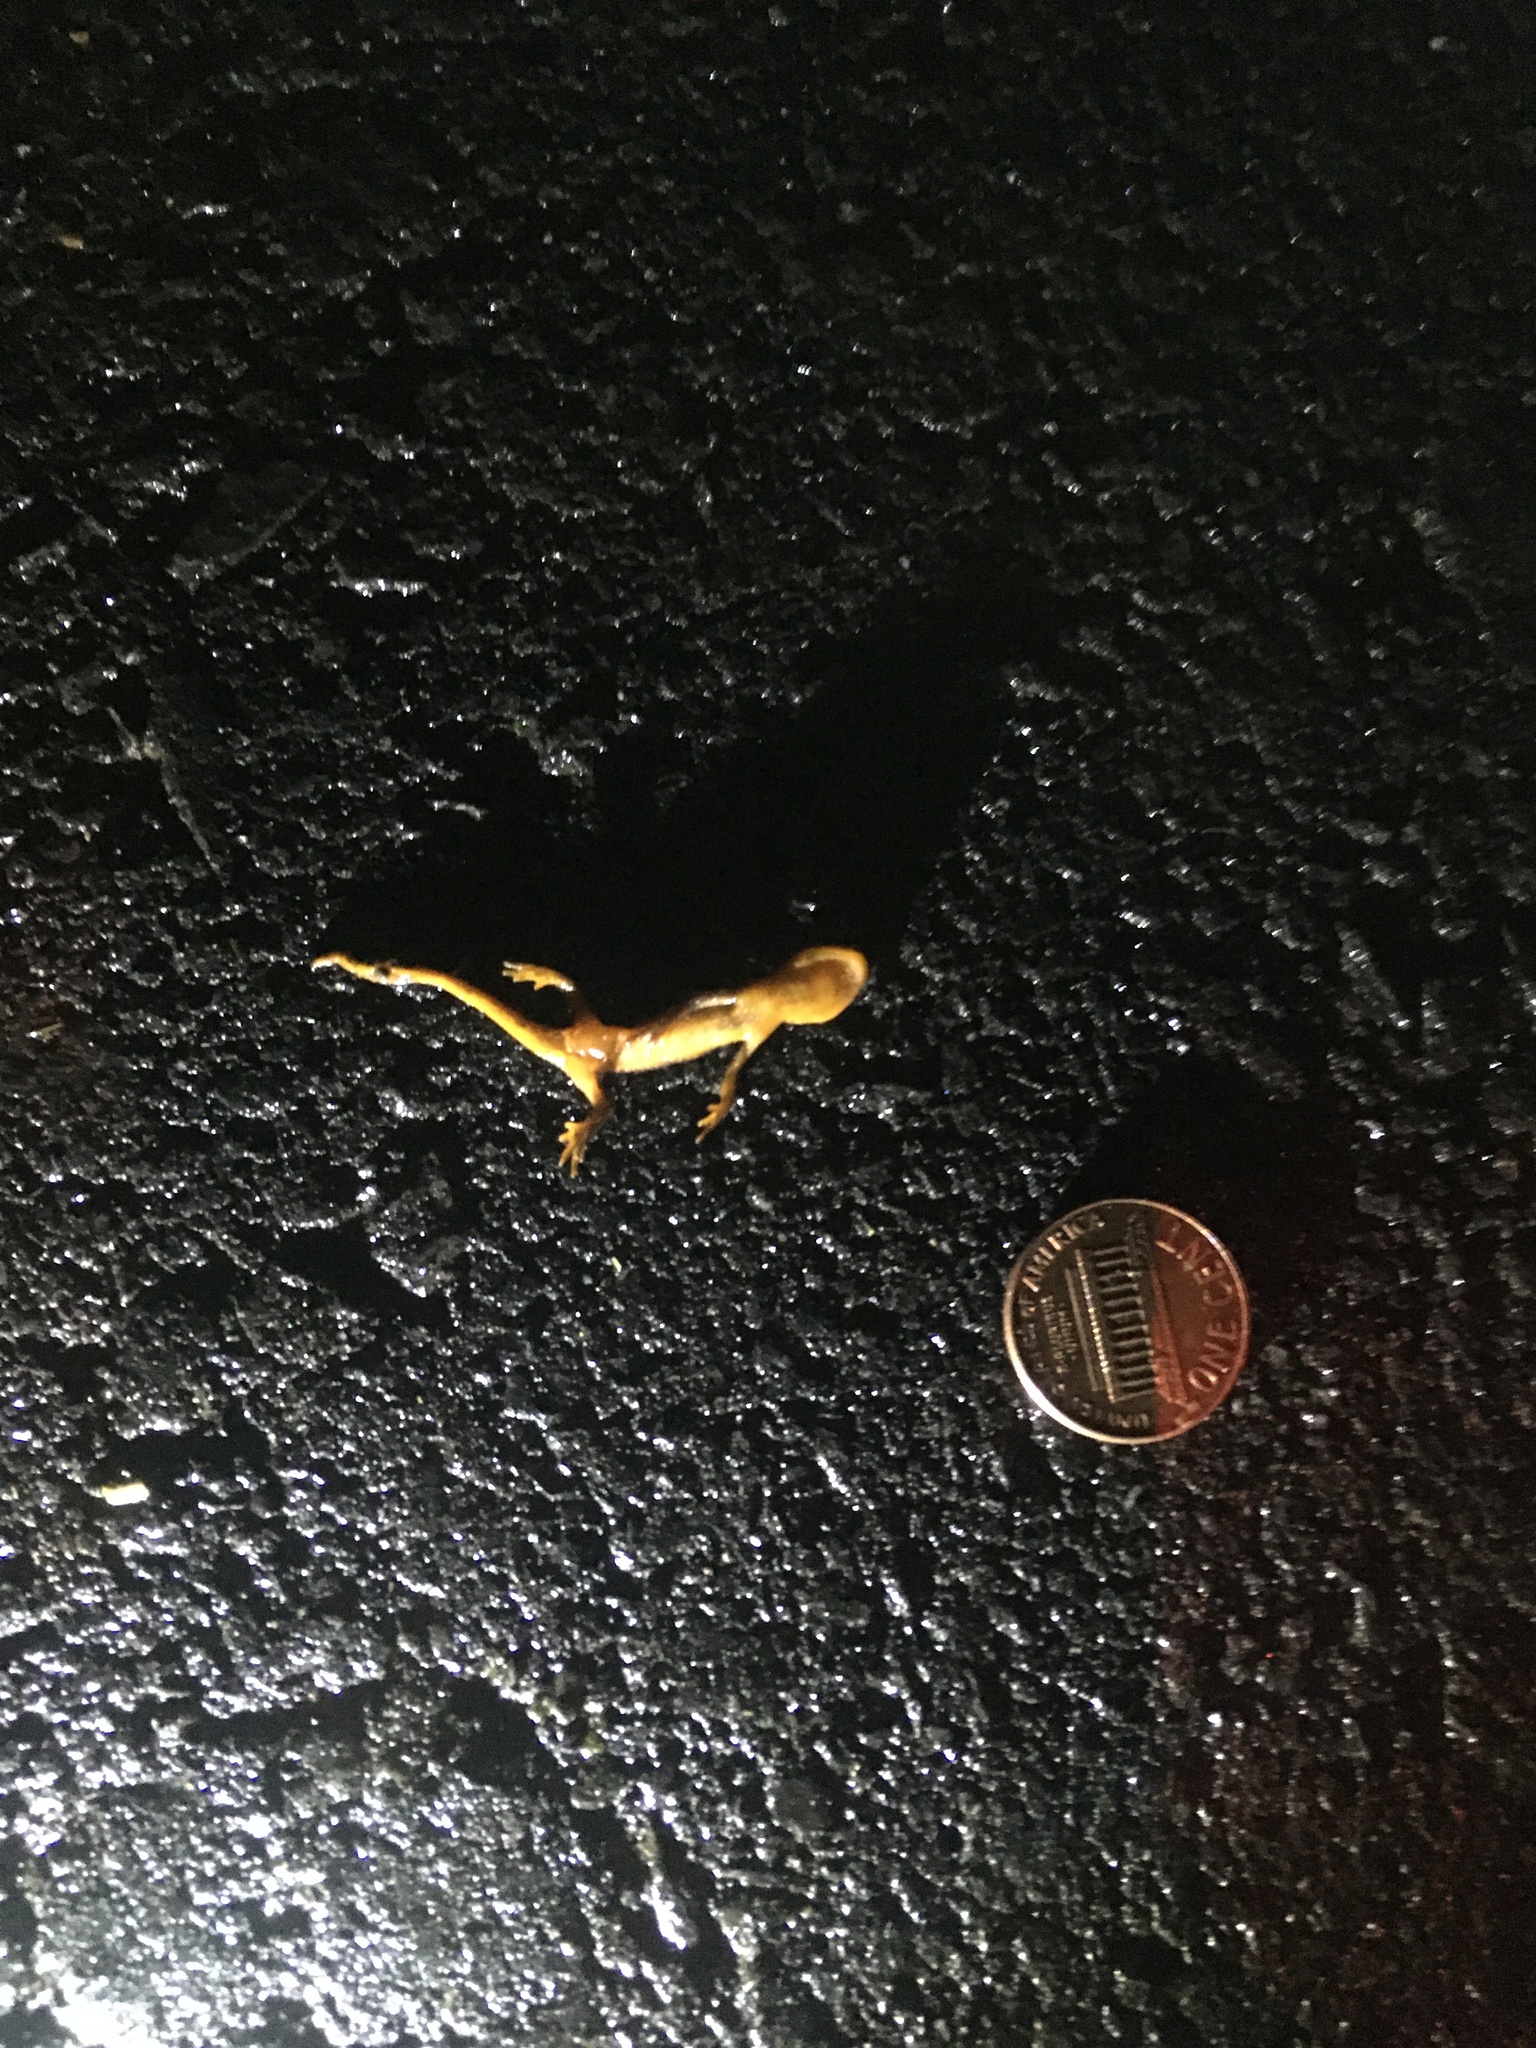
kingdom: Animalia
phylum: Chordata
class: Amphibia
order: Caudata
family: Salamandridae
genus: Taricha
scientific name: Taricha
